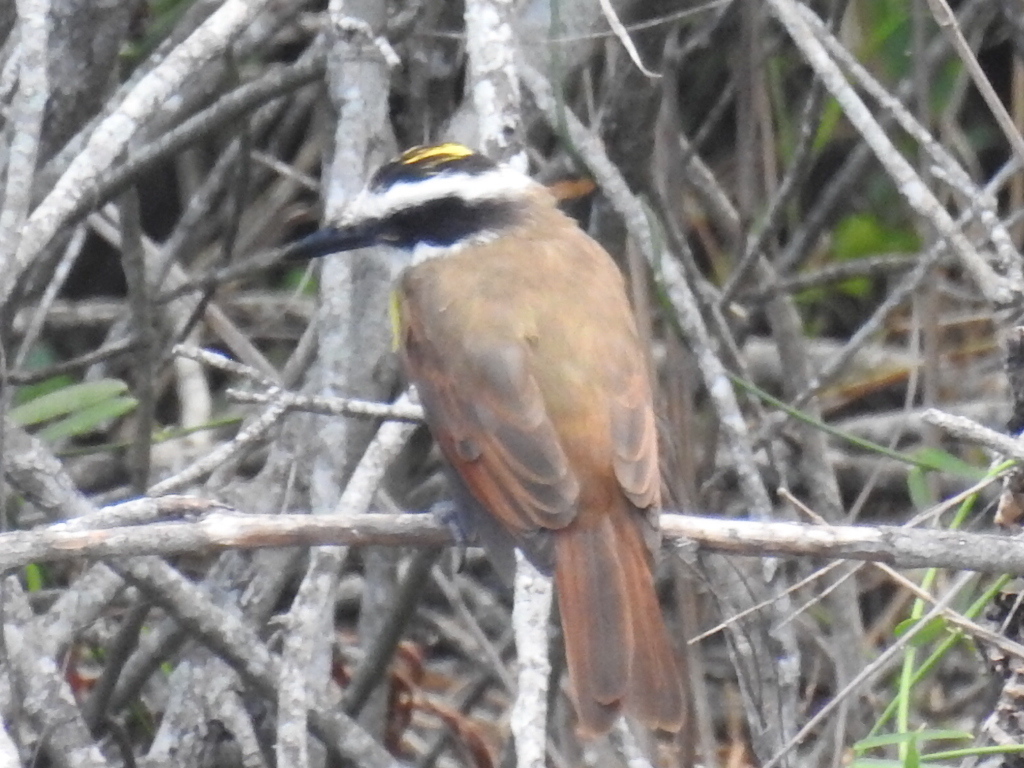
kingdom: Animalia
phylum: Chordata
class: Aves
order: Passeriformes
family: Tyrannidae
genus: Pitangus
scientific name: Pitangus sulphuratus
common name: Great kiskadee
